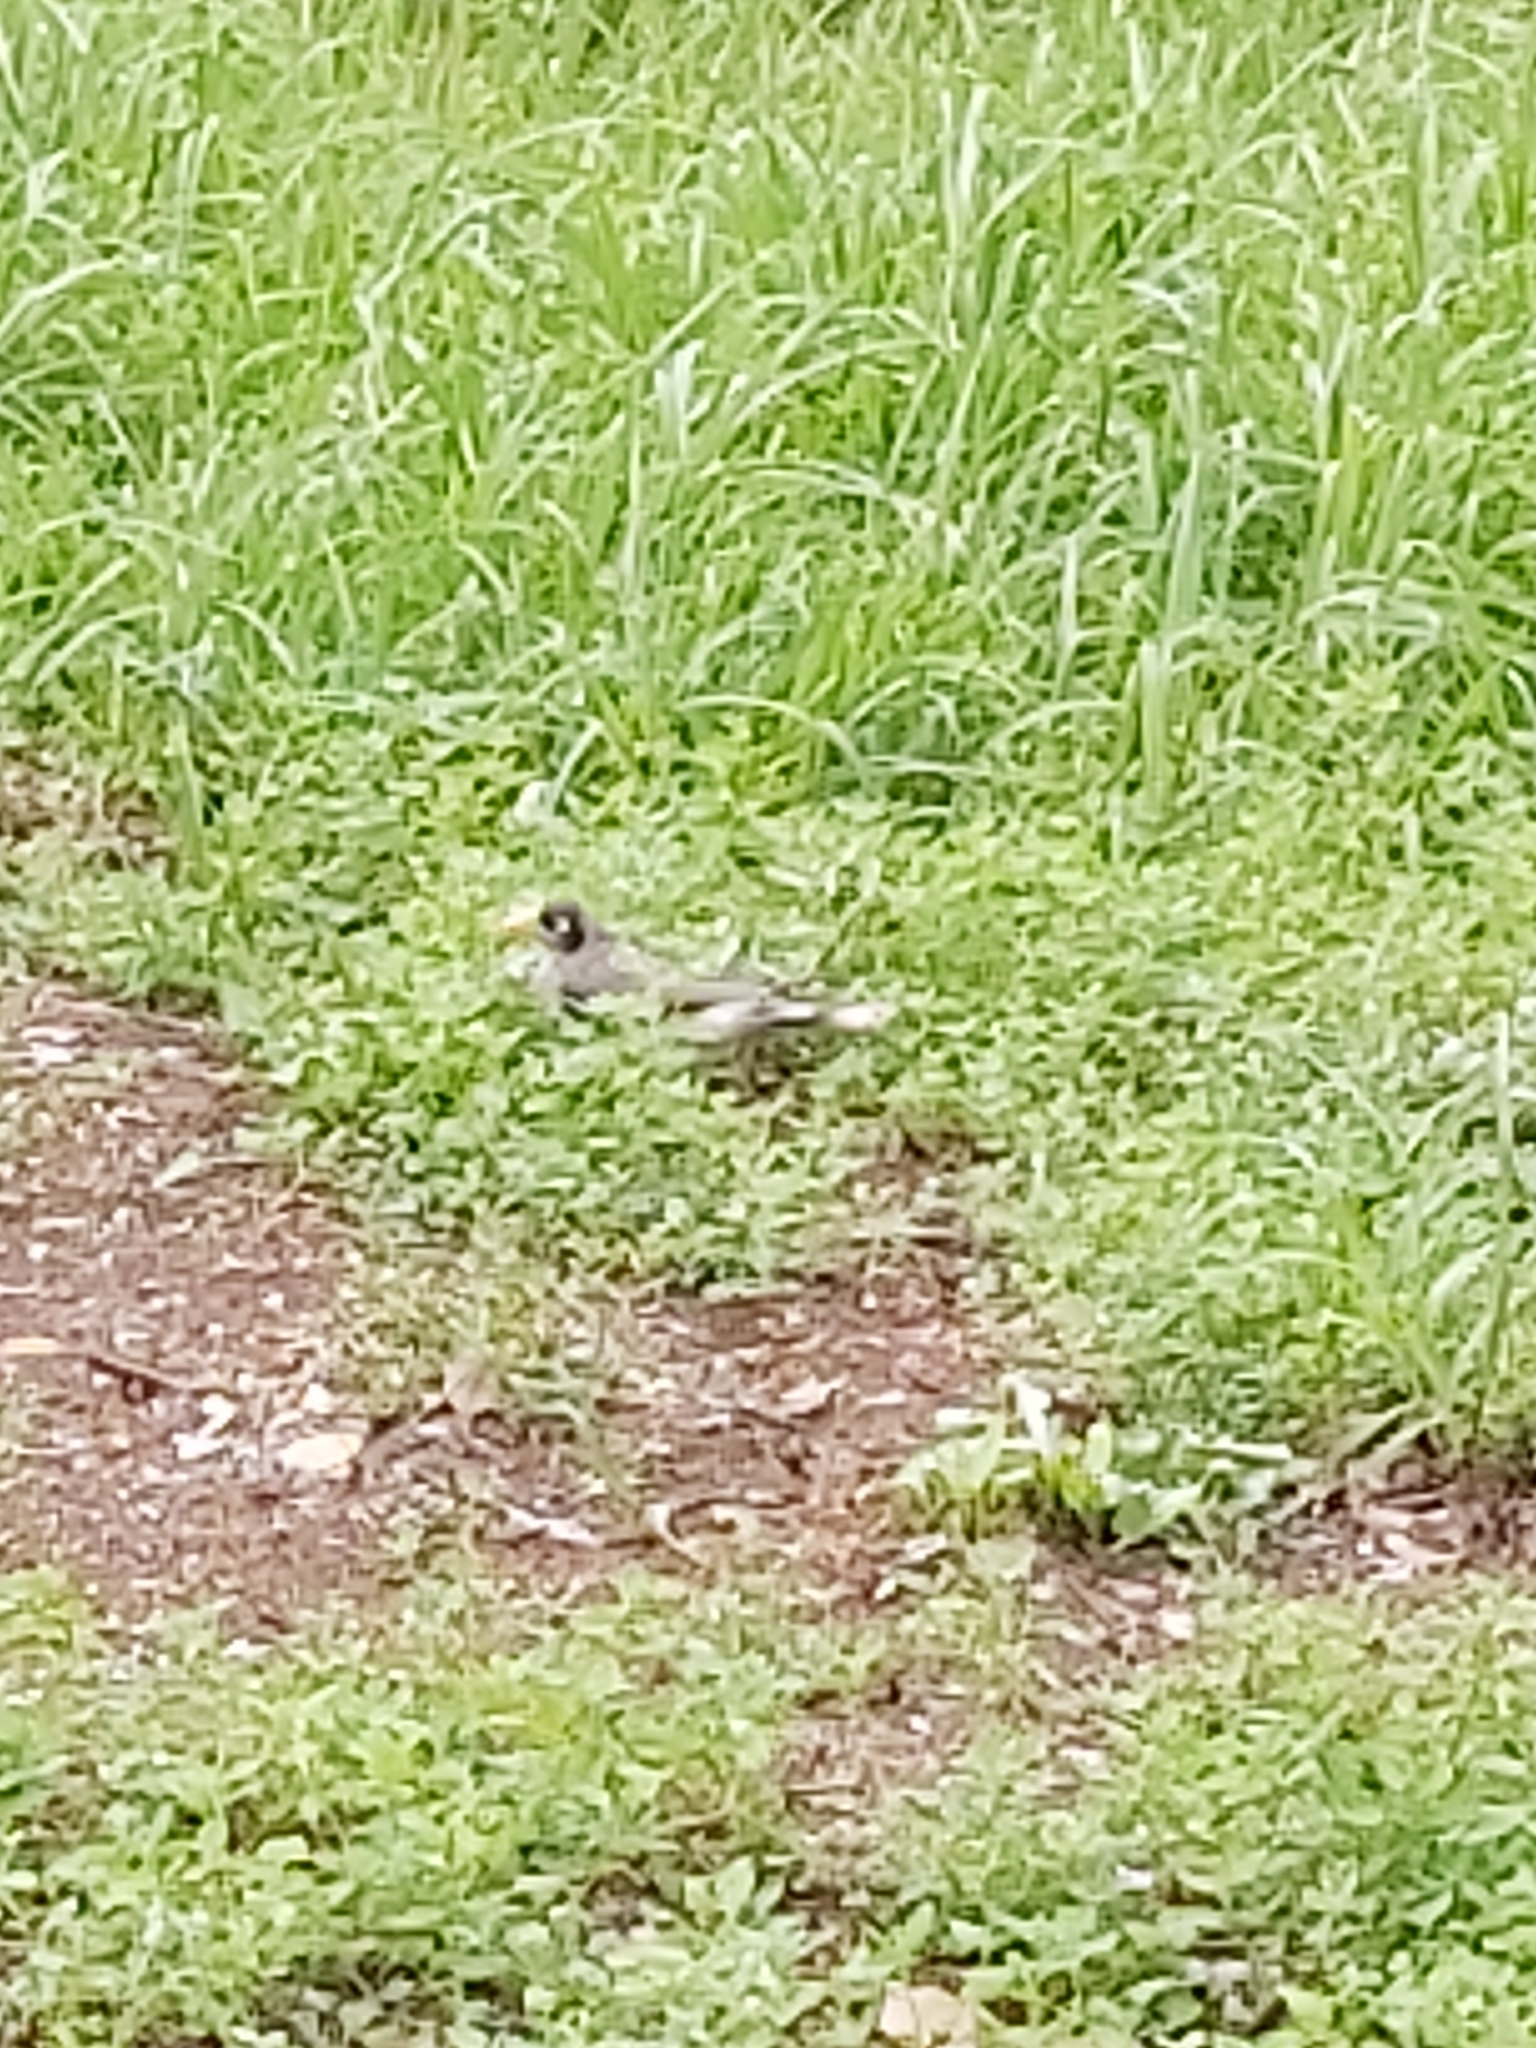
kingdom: Animalia
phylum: Chordata
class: Aves
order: Passeriformes
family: Meliphagidae
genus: Manorina
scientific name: Manorina melanocephala
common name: Noisy miner
